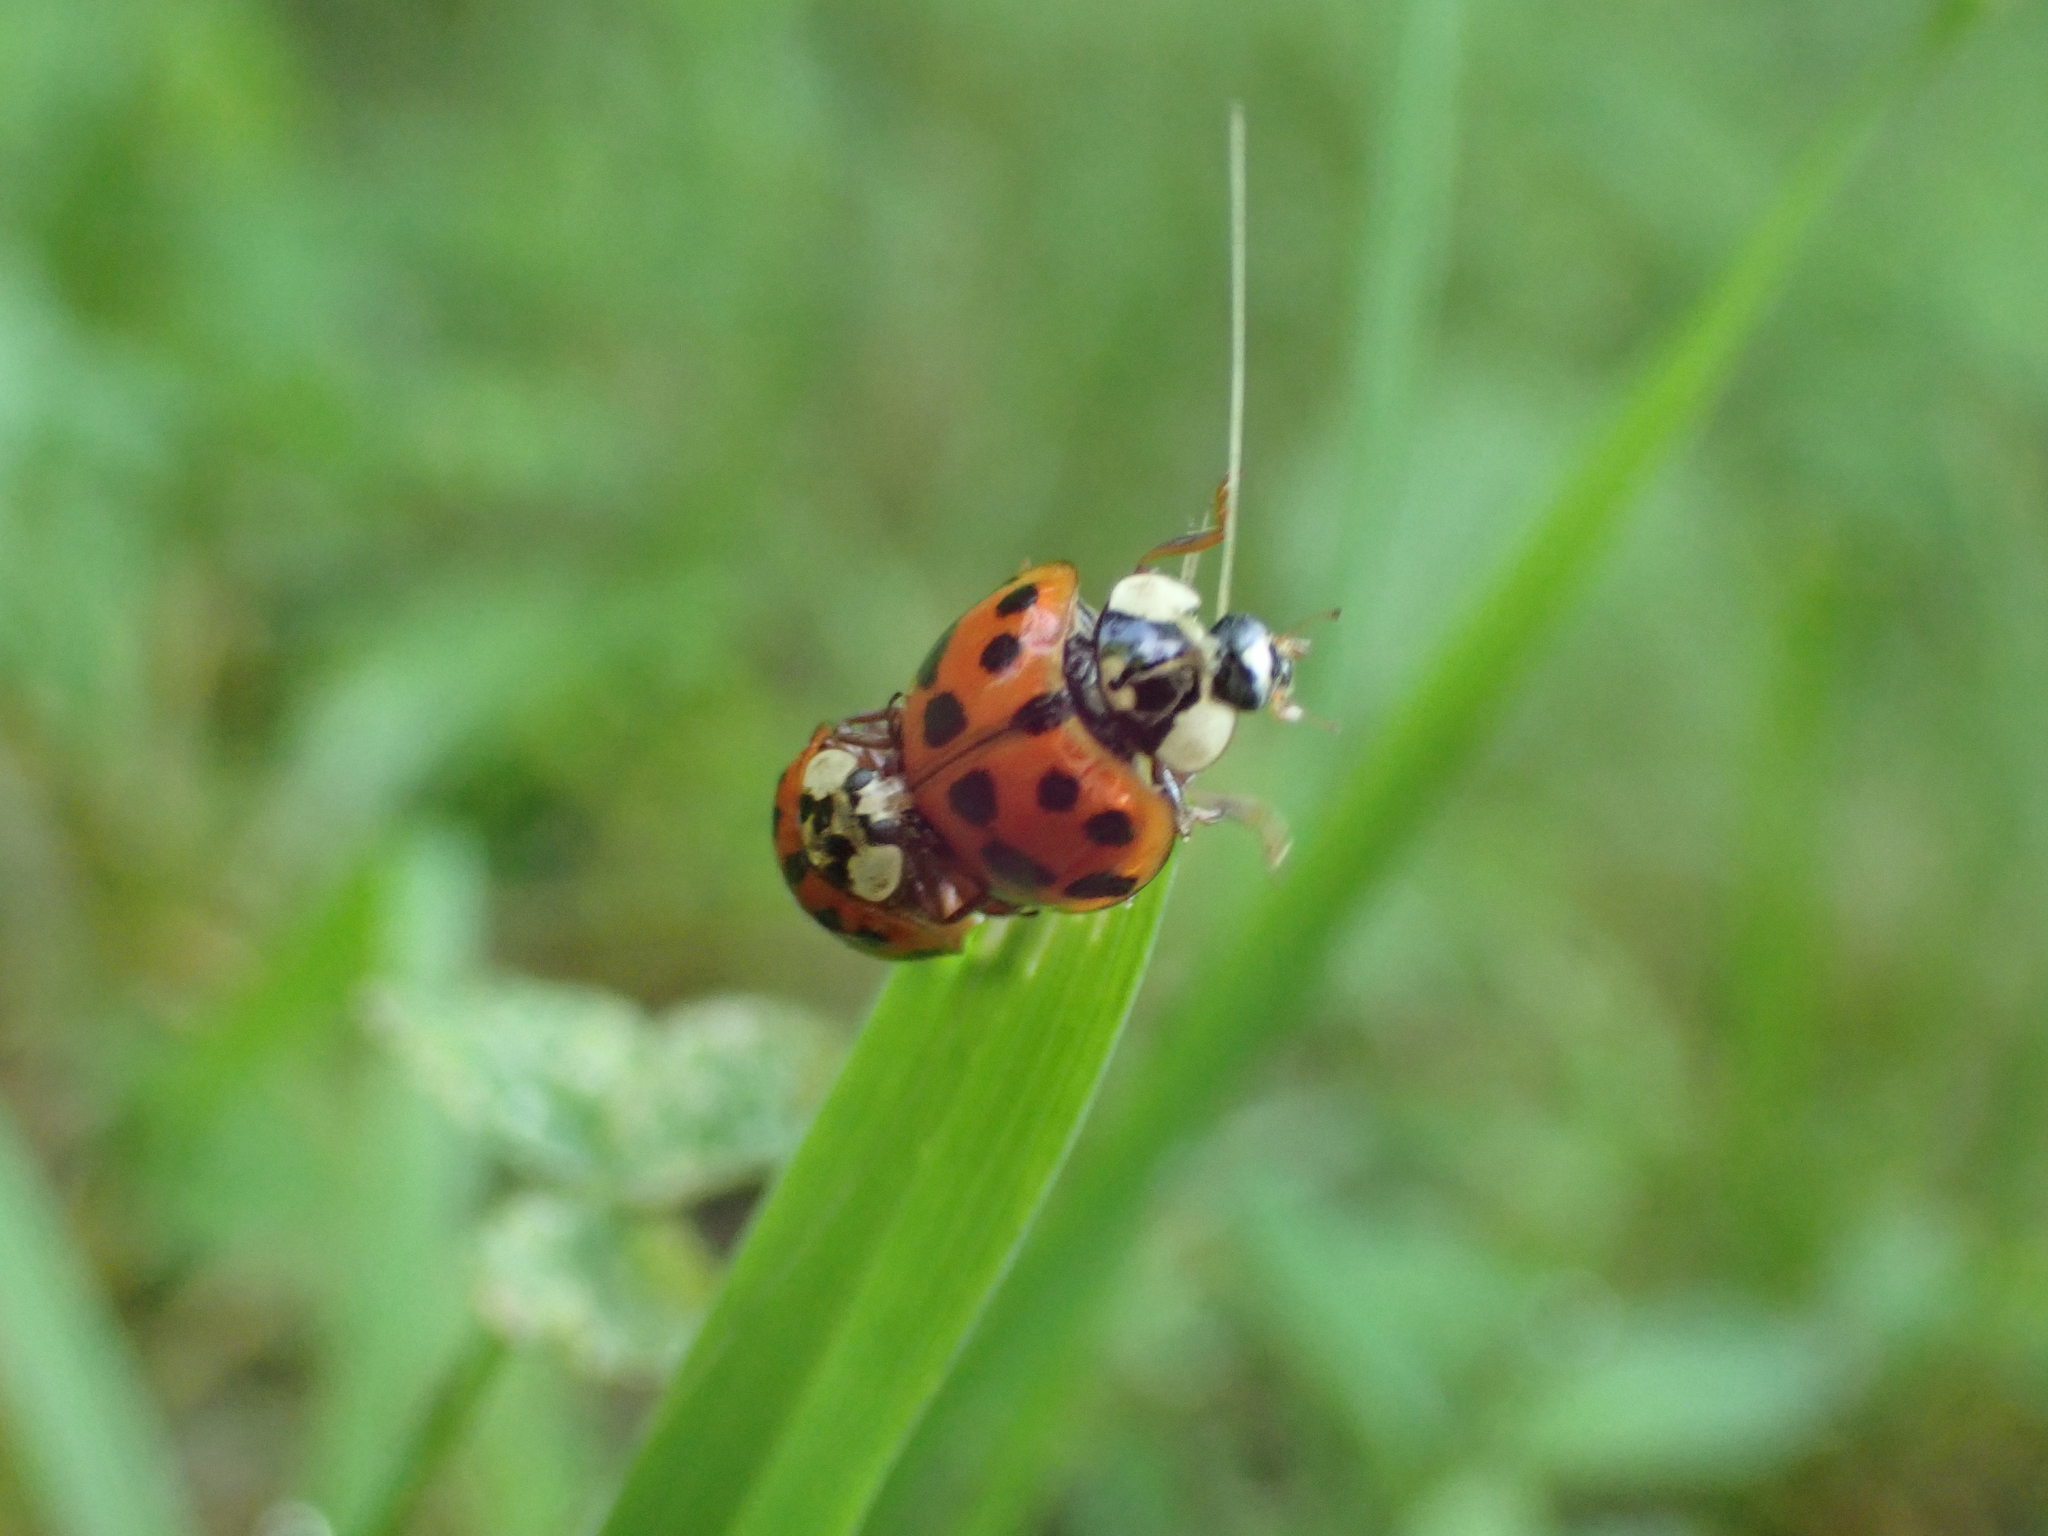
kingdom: Animalia
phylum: Arthropoda
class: Insecta
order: Coleoptera
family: Coccinellidae
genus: Harmonia
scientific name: Harmonia axyridis
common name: Harlequin ladybird
